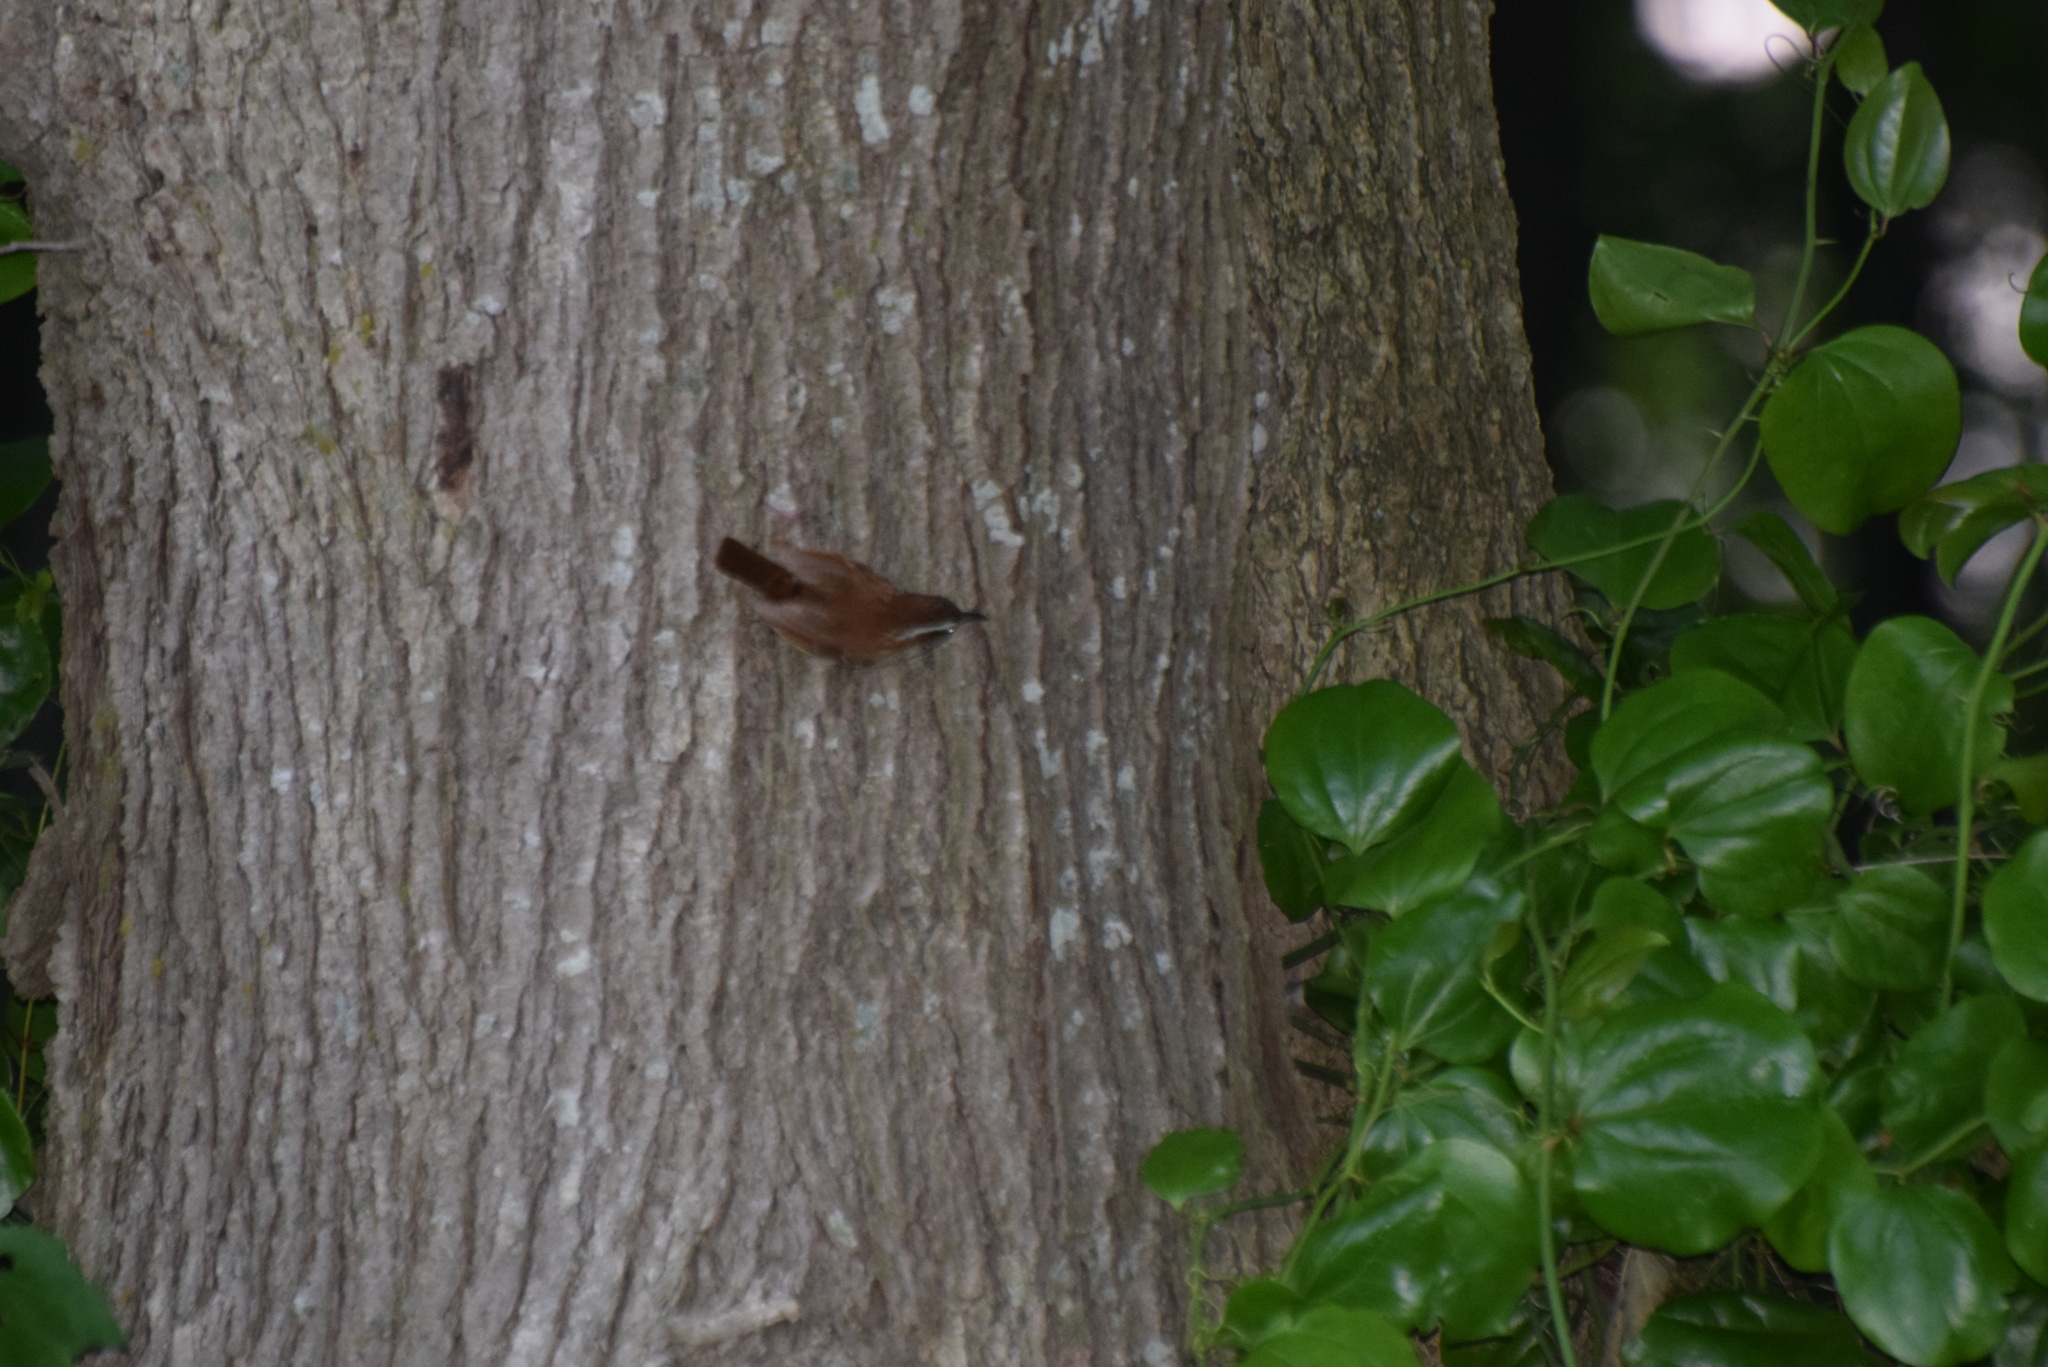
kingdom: Animalia
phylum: Chordata
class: Aves
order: Passeriformes
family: Troglodytidae
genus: Thryothorus
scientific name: Thryothorus ludovicianus
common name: Carolina wren
